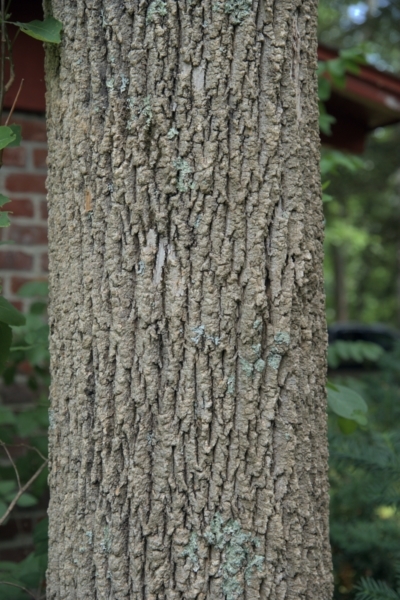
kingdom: Plantae
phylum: Tracheophyta
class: Magnoliopsida
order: Lamiales
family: Oleaceae
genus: Fraxinus
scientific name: Fraxinus americana
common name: White ash
